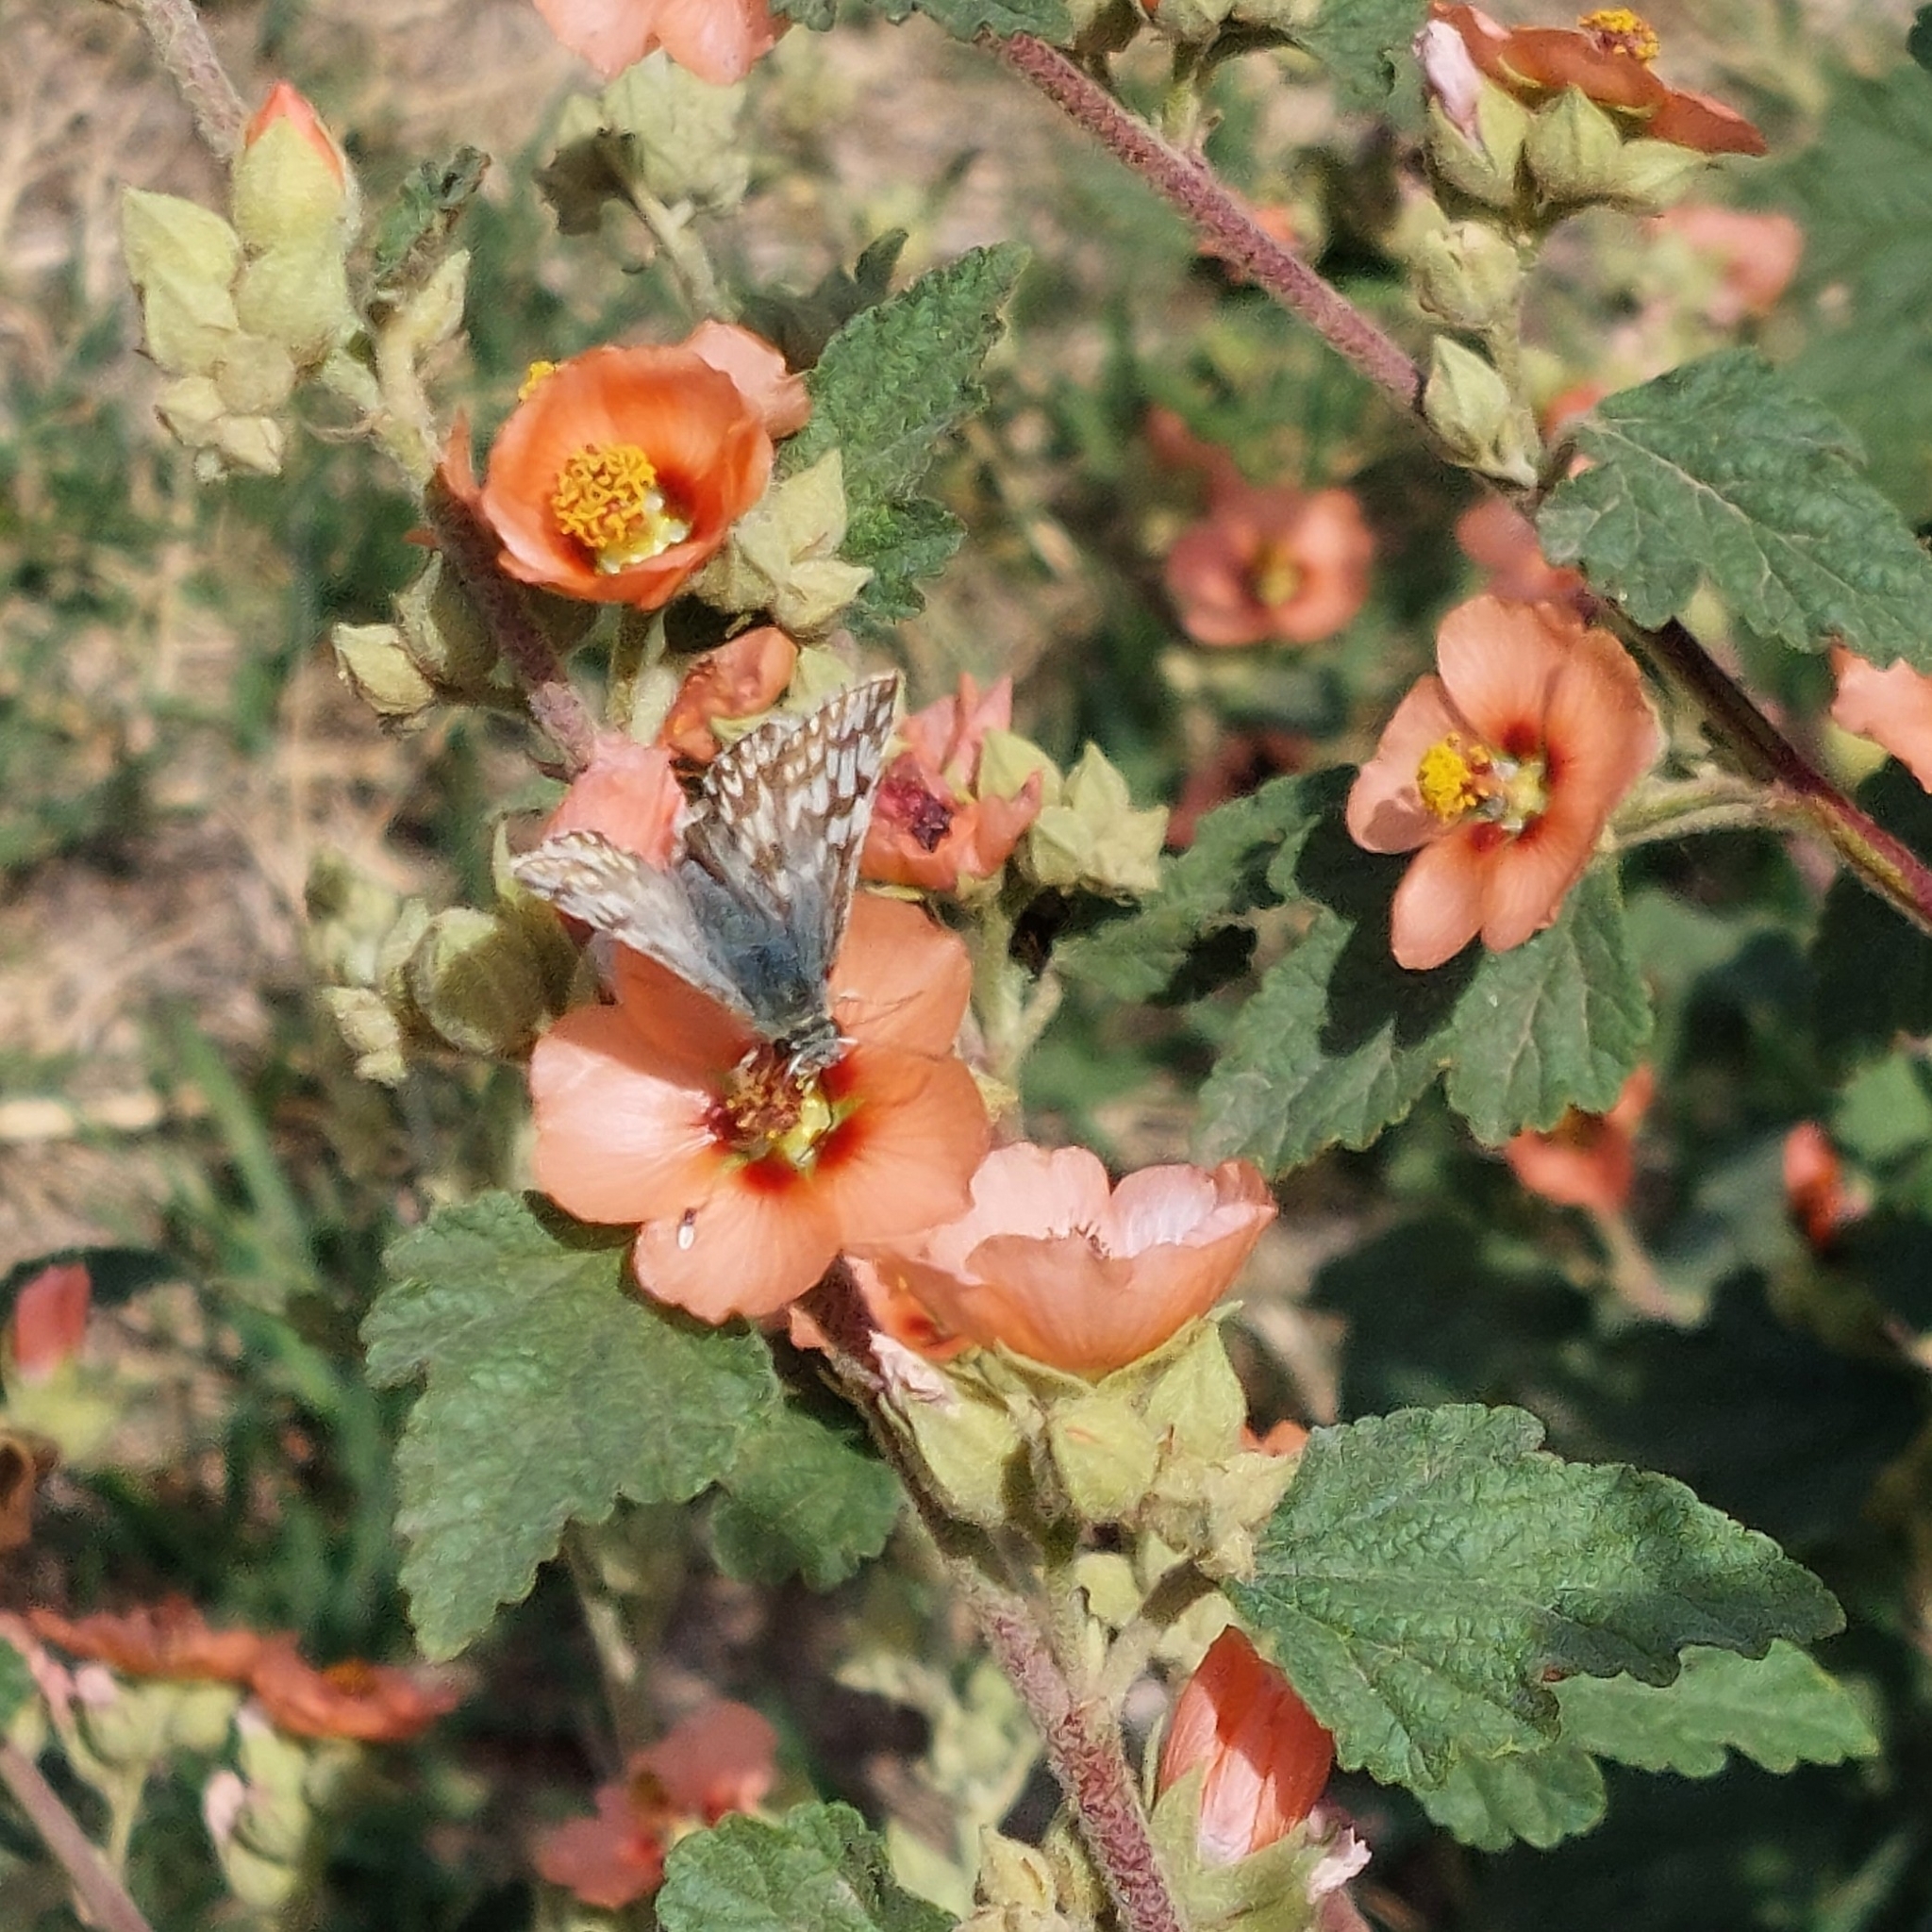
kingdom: Animalia
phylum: Arthropoda
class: Insecta
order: Lepidoptera
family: Hesperiidae
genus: Heliopetes
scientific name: Heliopetes americanus
